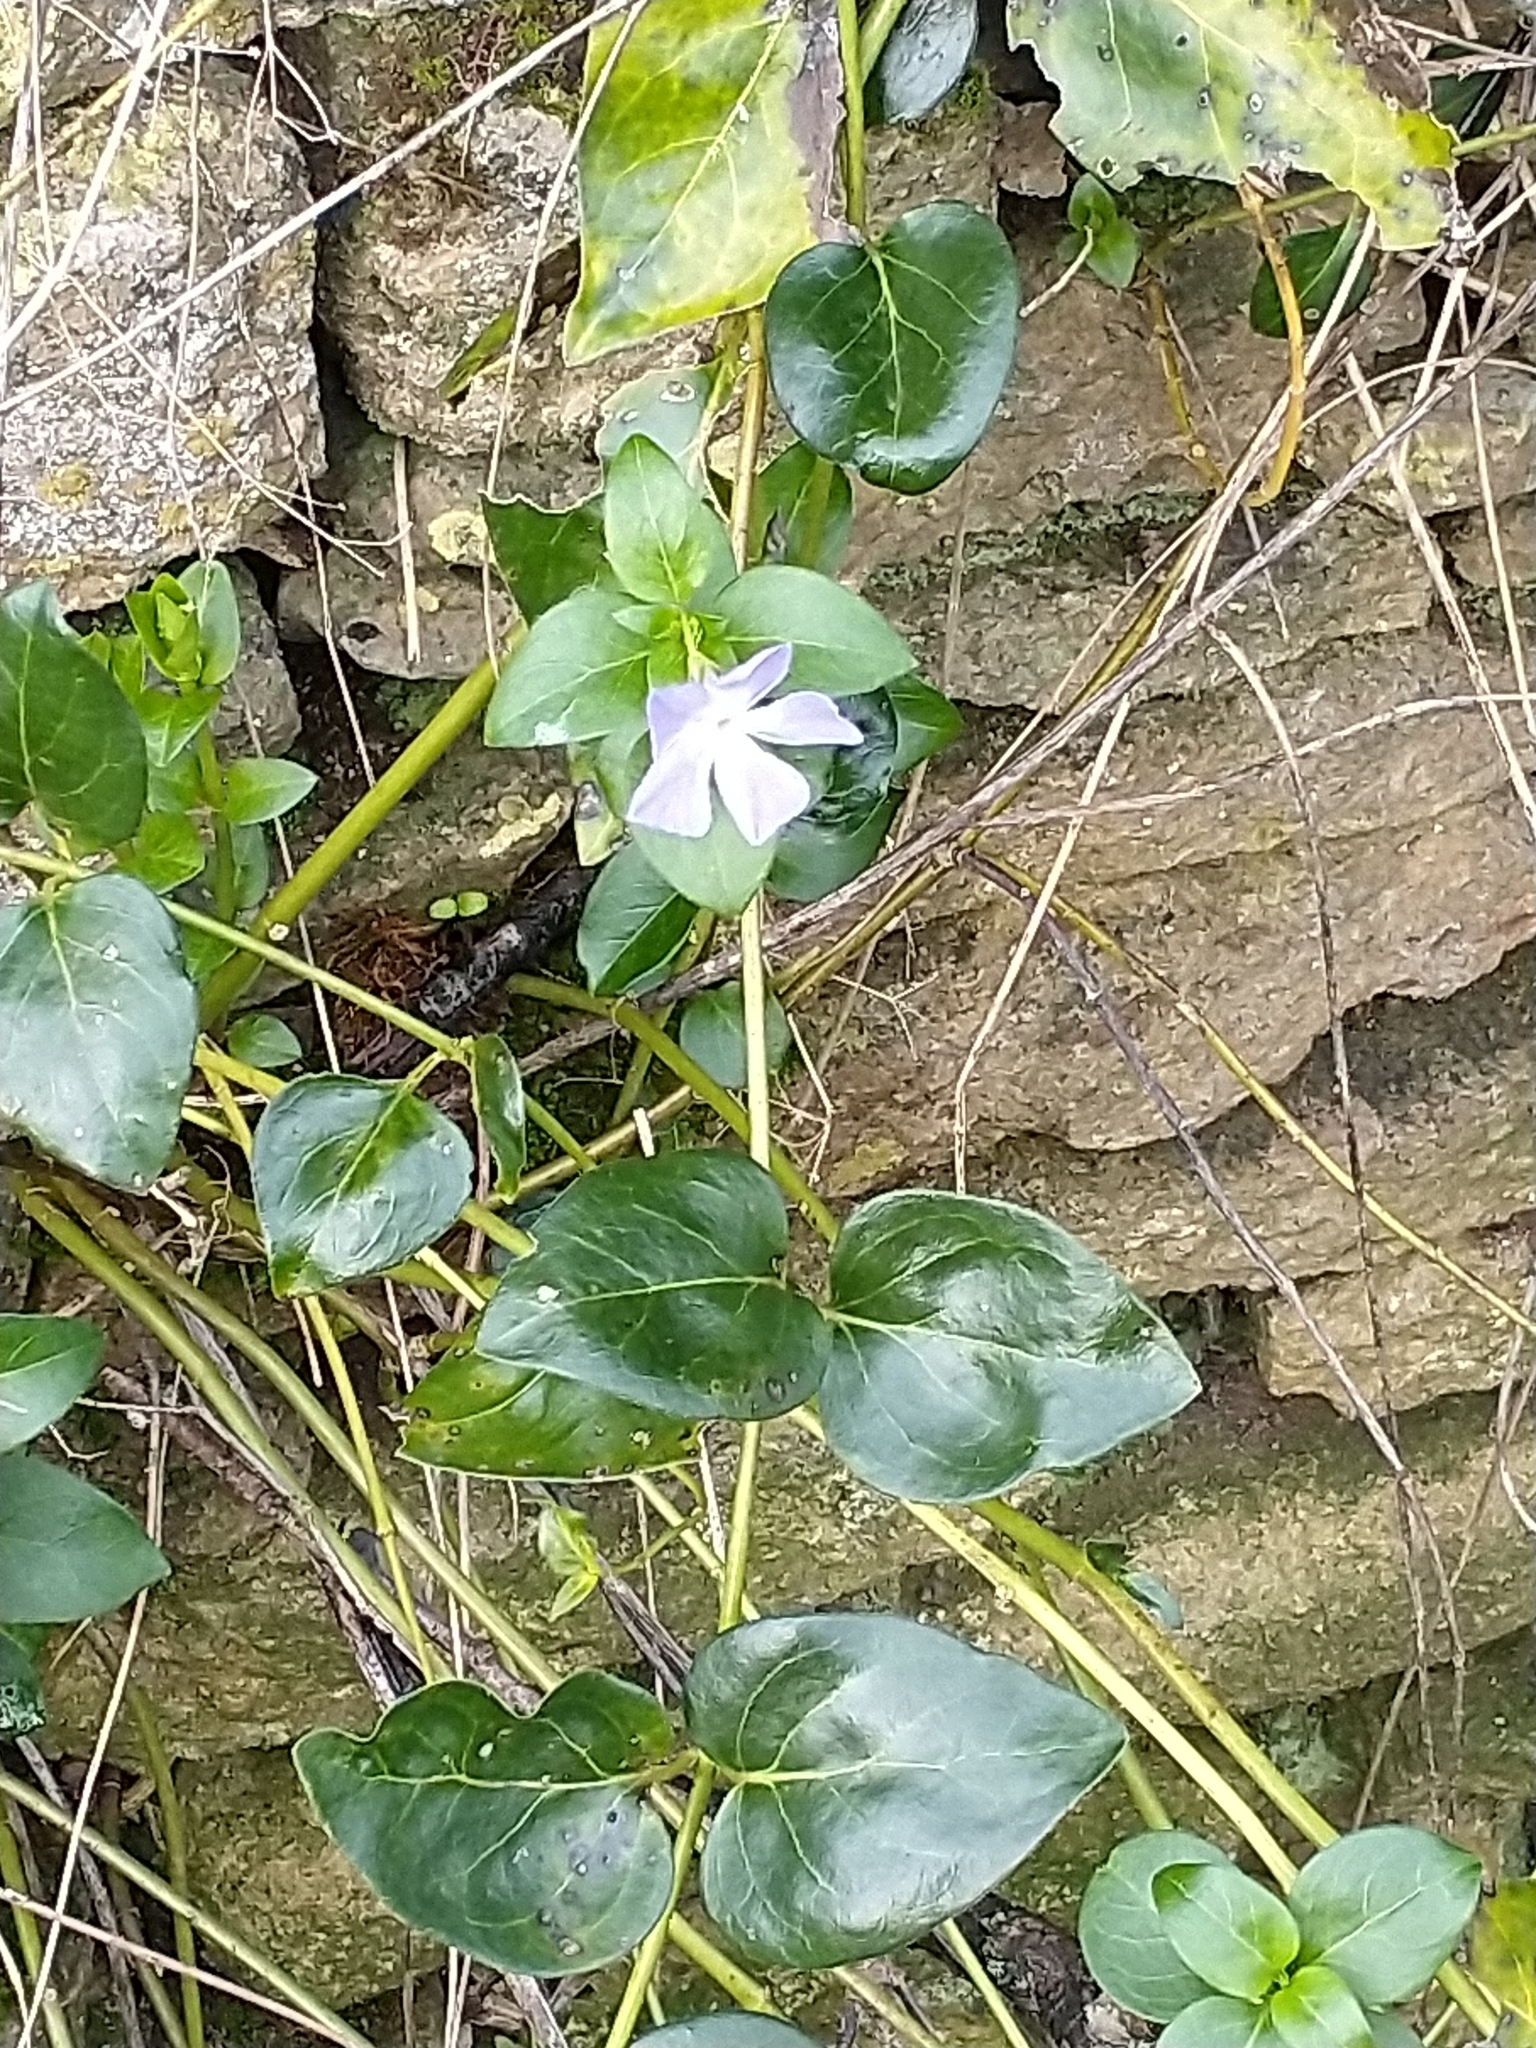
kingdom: Plantae
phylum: Tracheophyta
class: Magnoliopsida
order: Gentianales
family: Apocynaceae
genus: Vinca
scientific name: Vinca major
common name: Greater periwinkle
